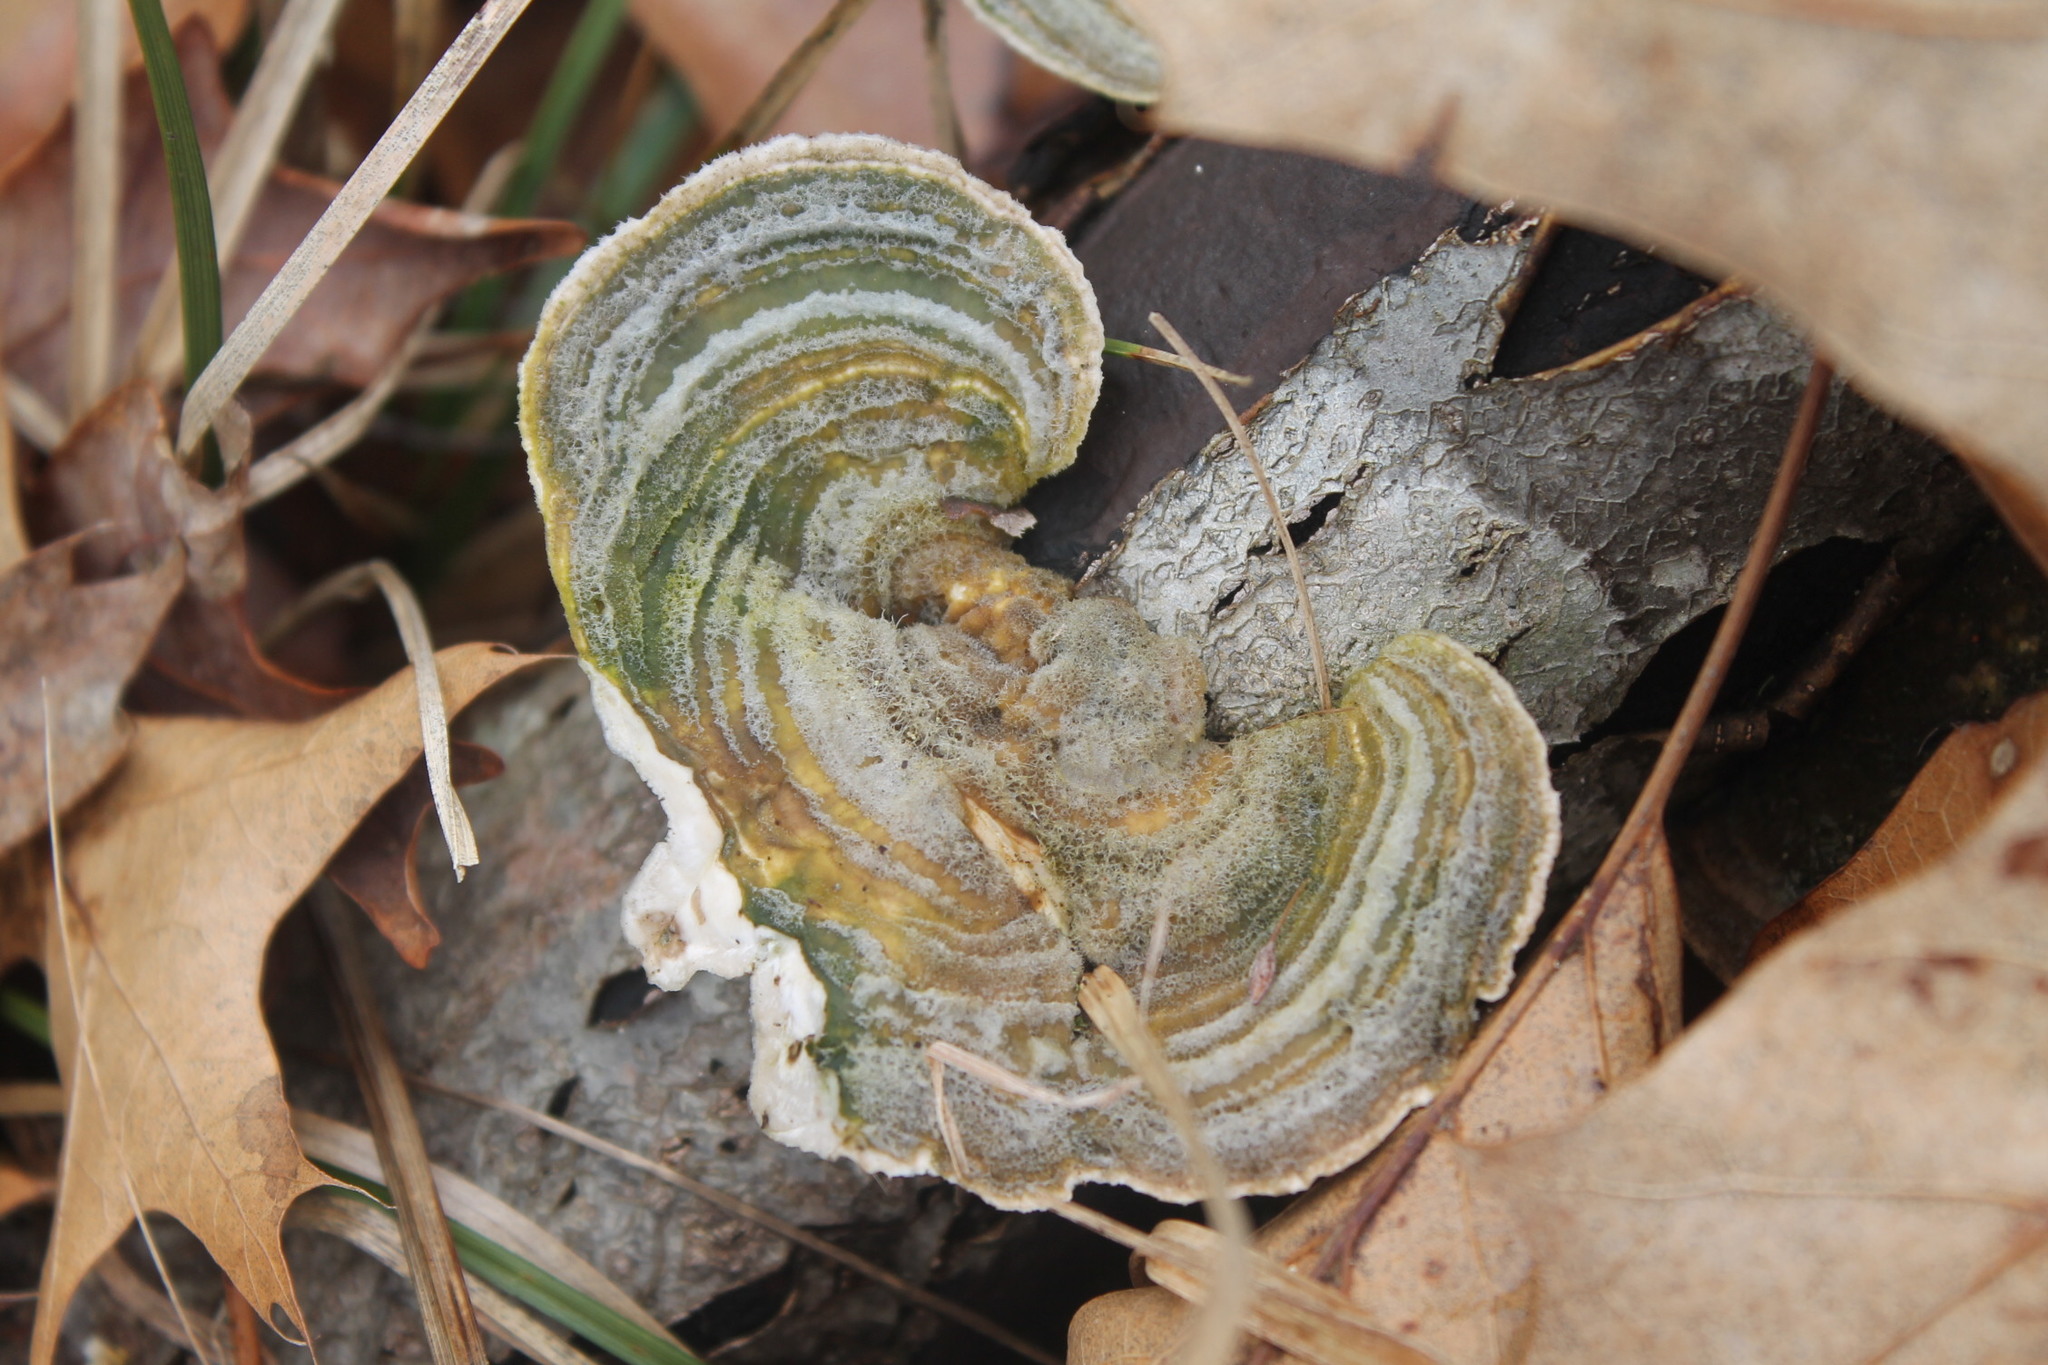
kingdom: Fungi
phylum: Basidiomycota
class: Agaricomycetes
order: Polyporales
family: Polyporaceae
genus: Trametes
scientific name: Trametes hirsuta
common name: Hairy bracket
